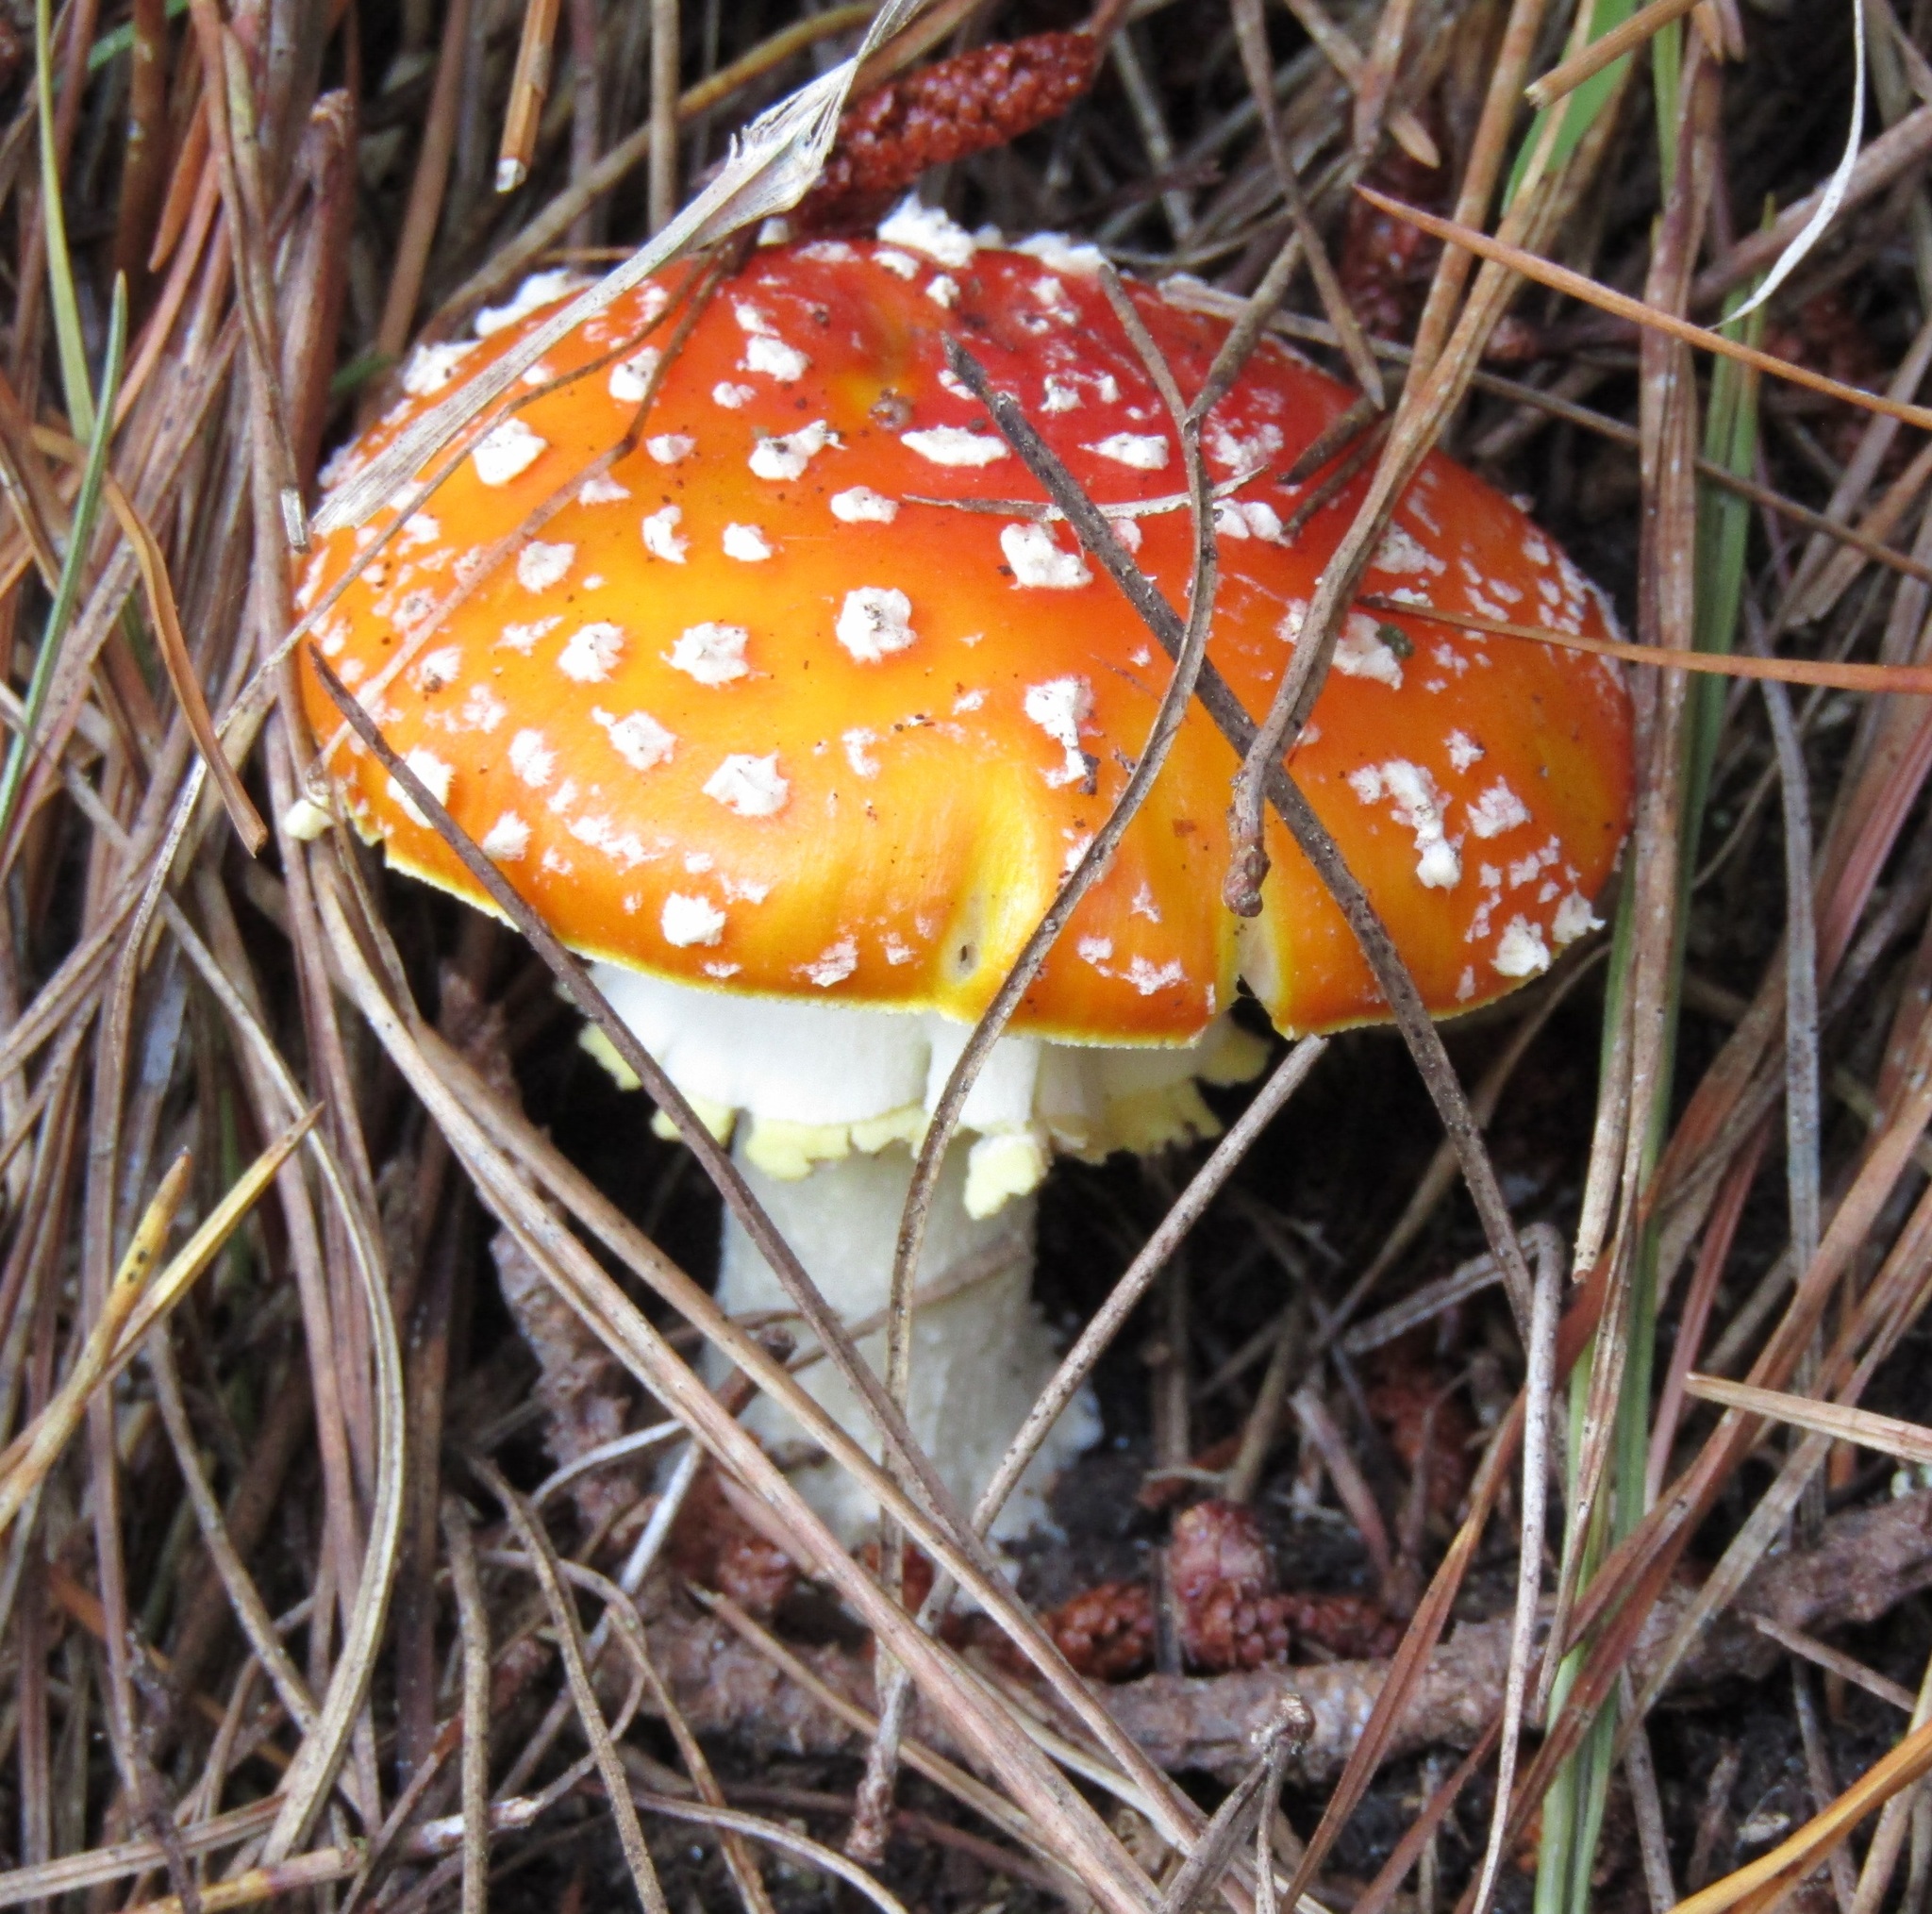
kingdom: Fungi
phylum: Basidiomycota
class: Agaricomycetes
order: Agaricales
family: Amanitaceae
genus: Amanita
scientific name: Amanita muscaria
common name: Fly agaric
